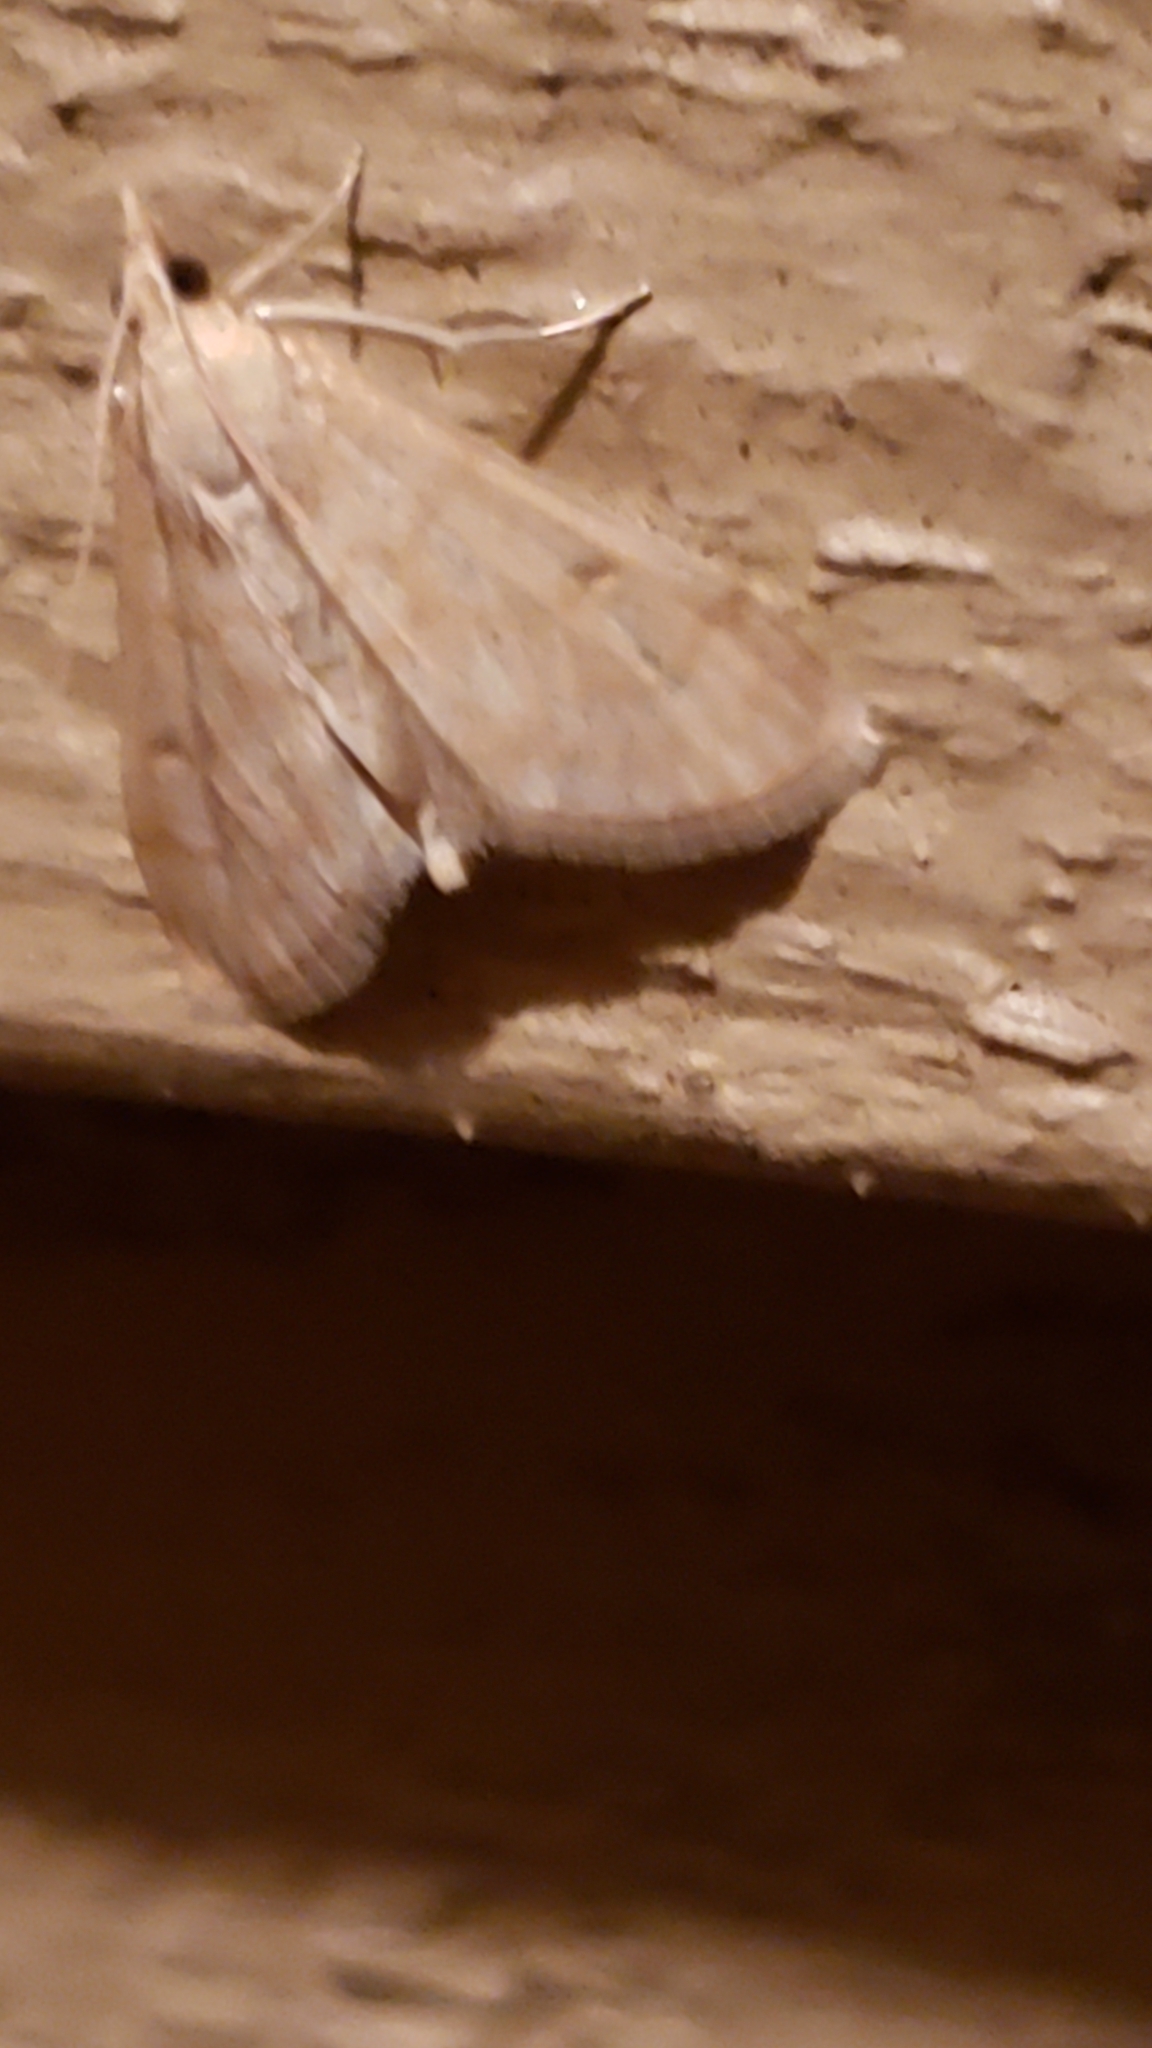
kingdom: Animalia
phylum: Arthropoda
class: Insecta
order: Lepidoptera
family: Crambidae
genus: Paracorsia
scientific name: Paracorsia repandalis
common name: Mullein moth
